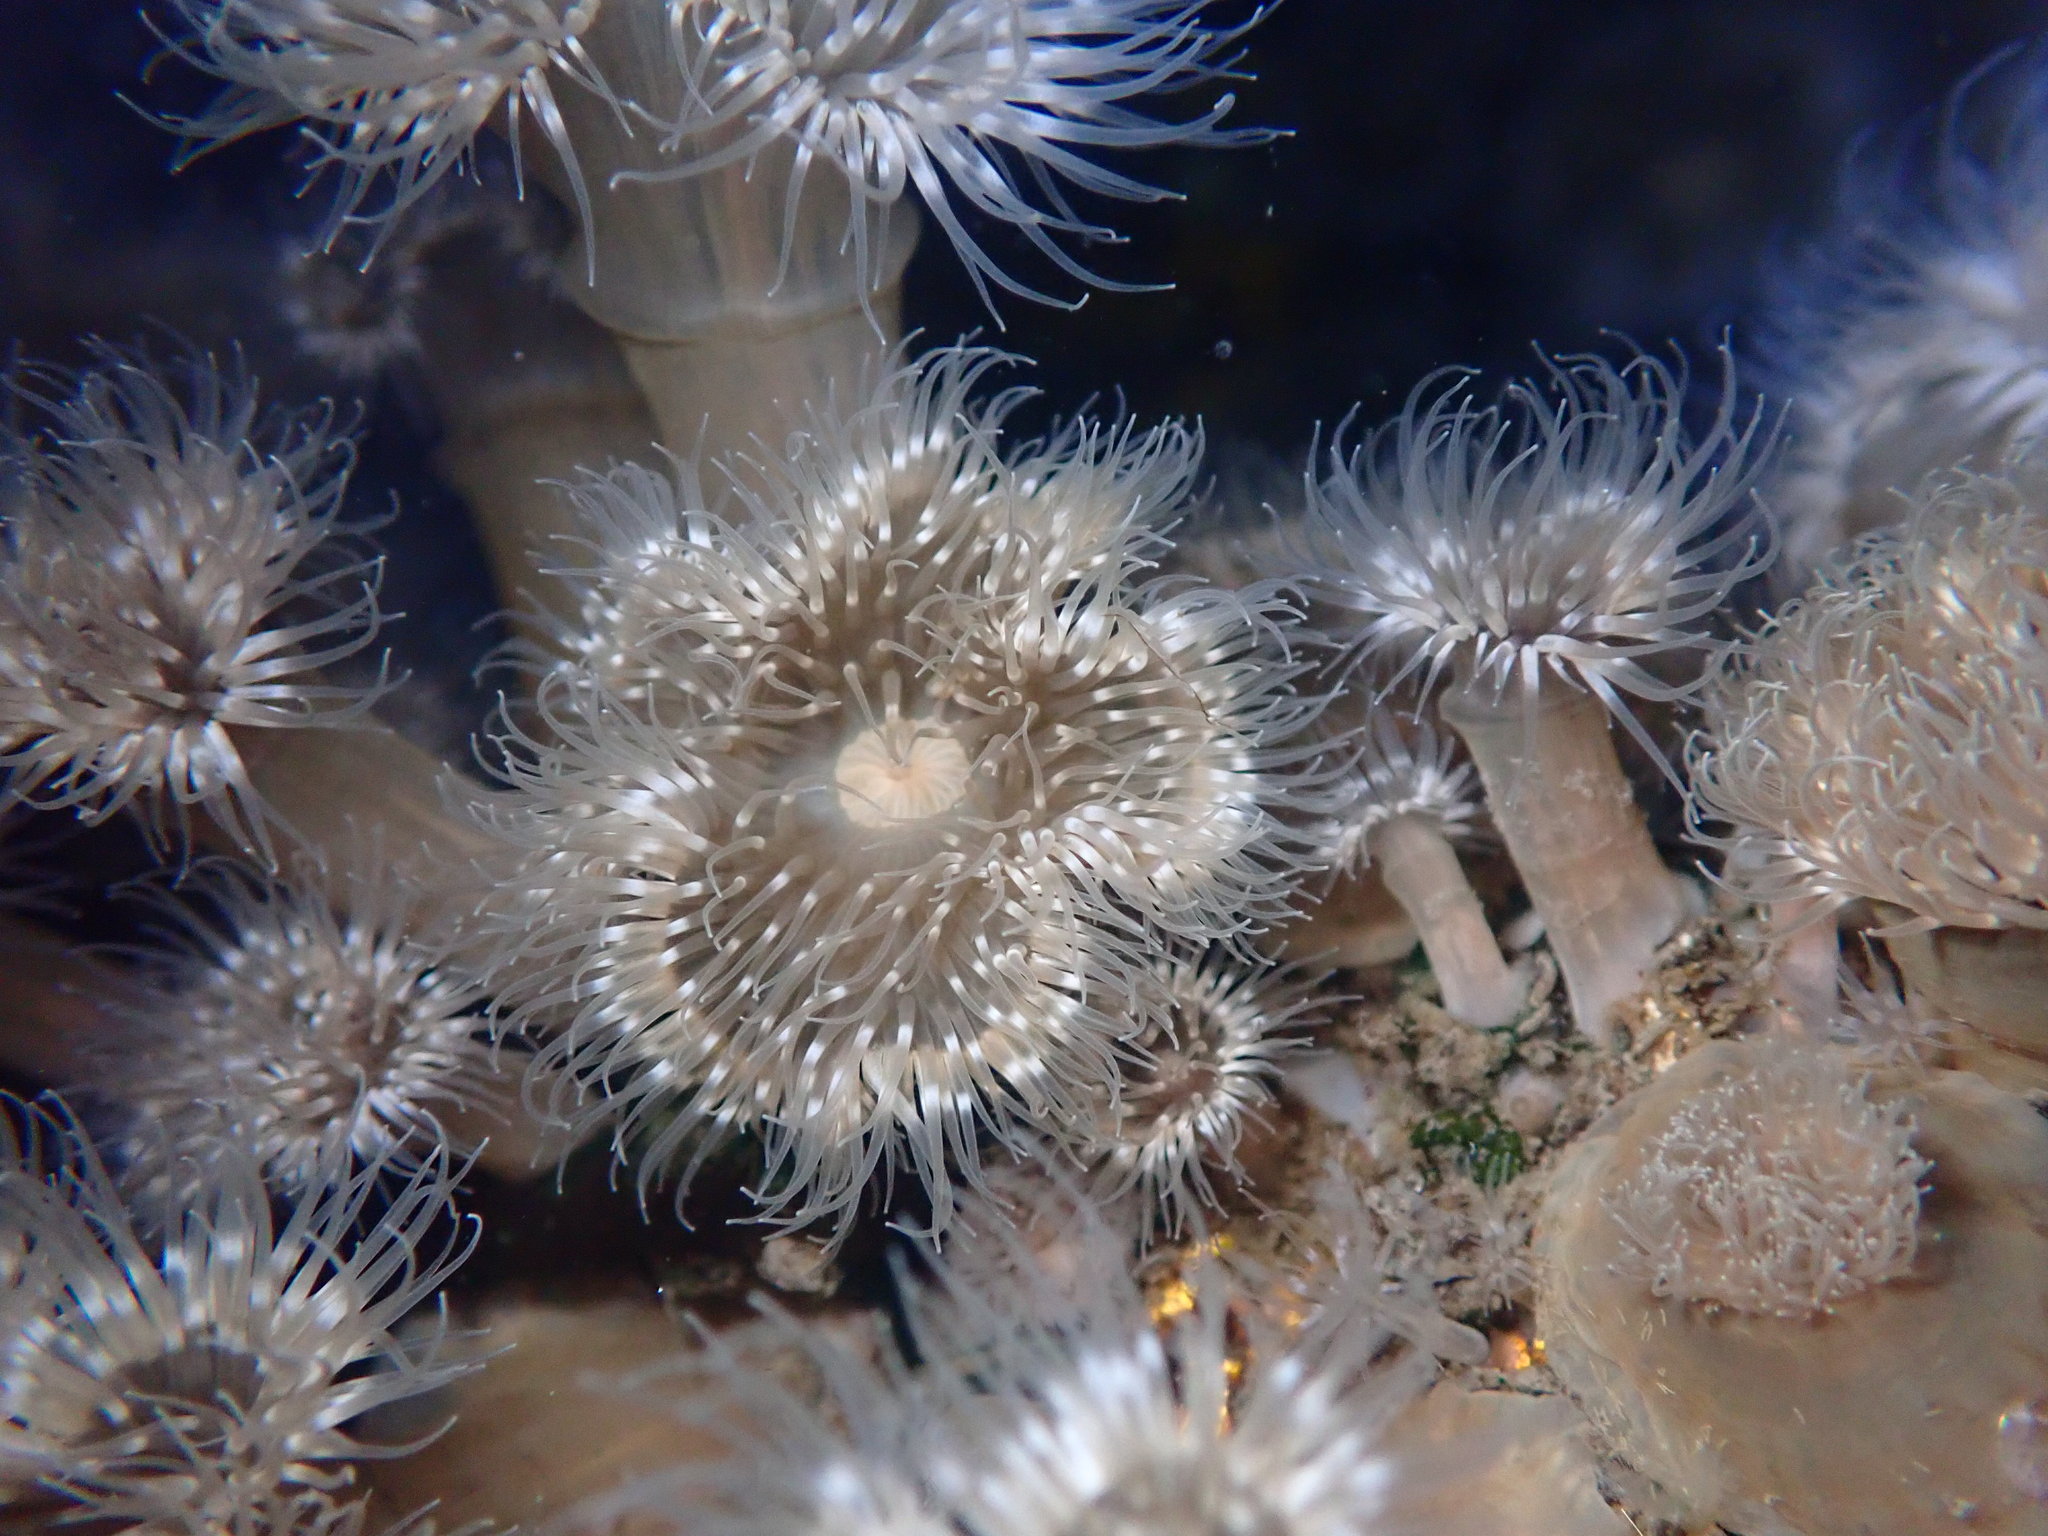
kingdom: Animalia
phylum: Cnidaria
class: Anthozoa
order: Actiniaria
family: Metridiidae
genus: Metridium
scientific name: Metridium senile
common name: Clonal plumose anemone
